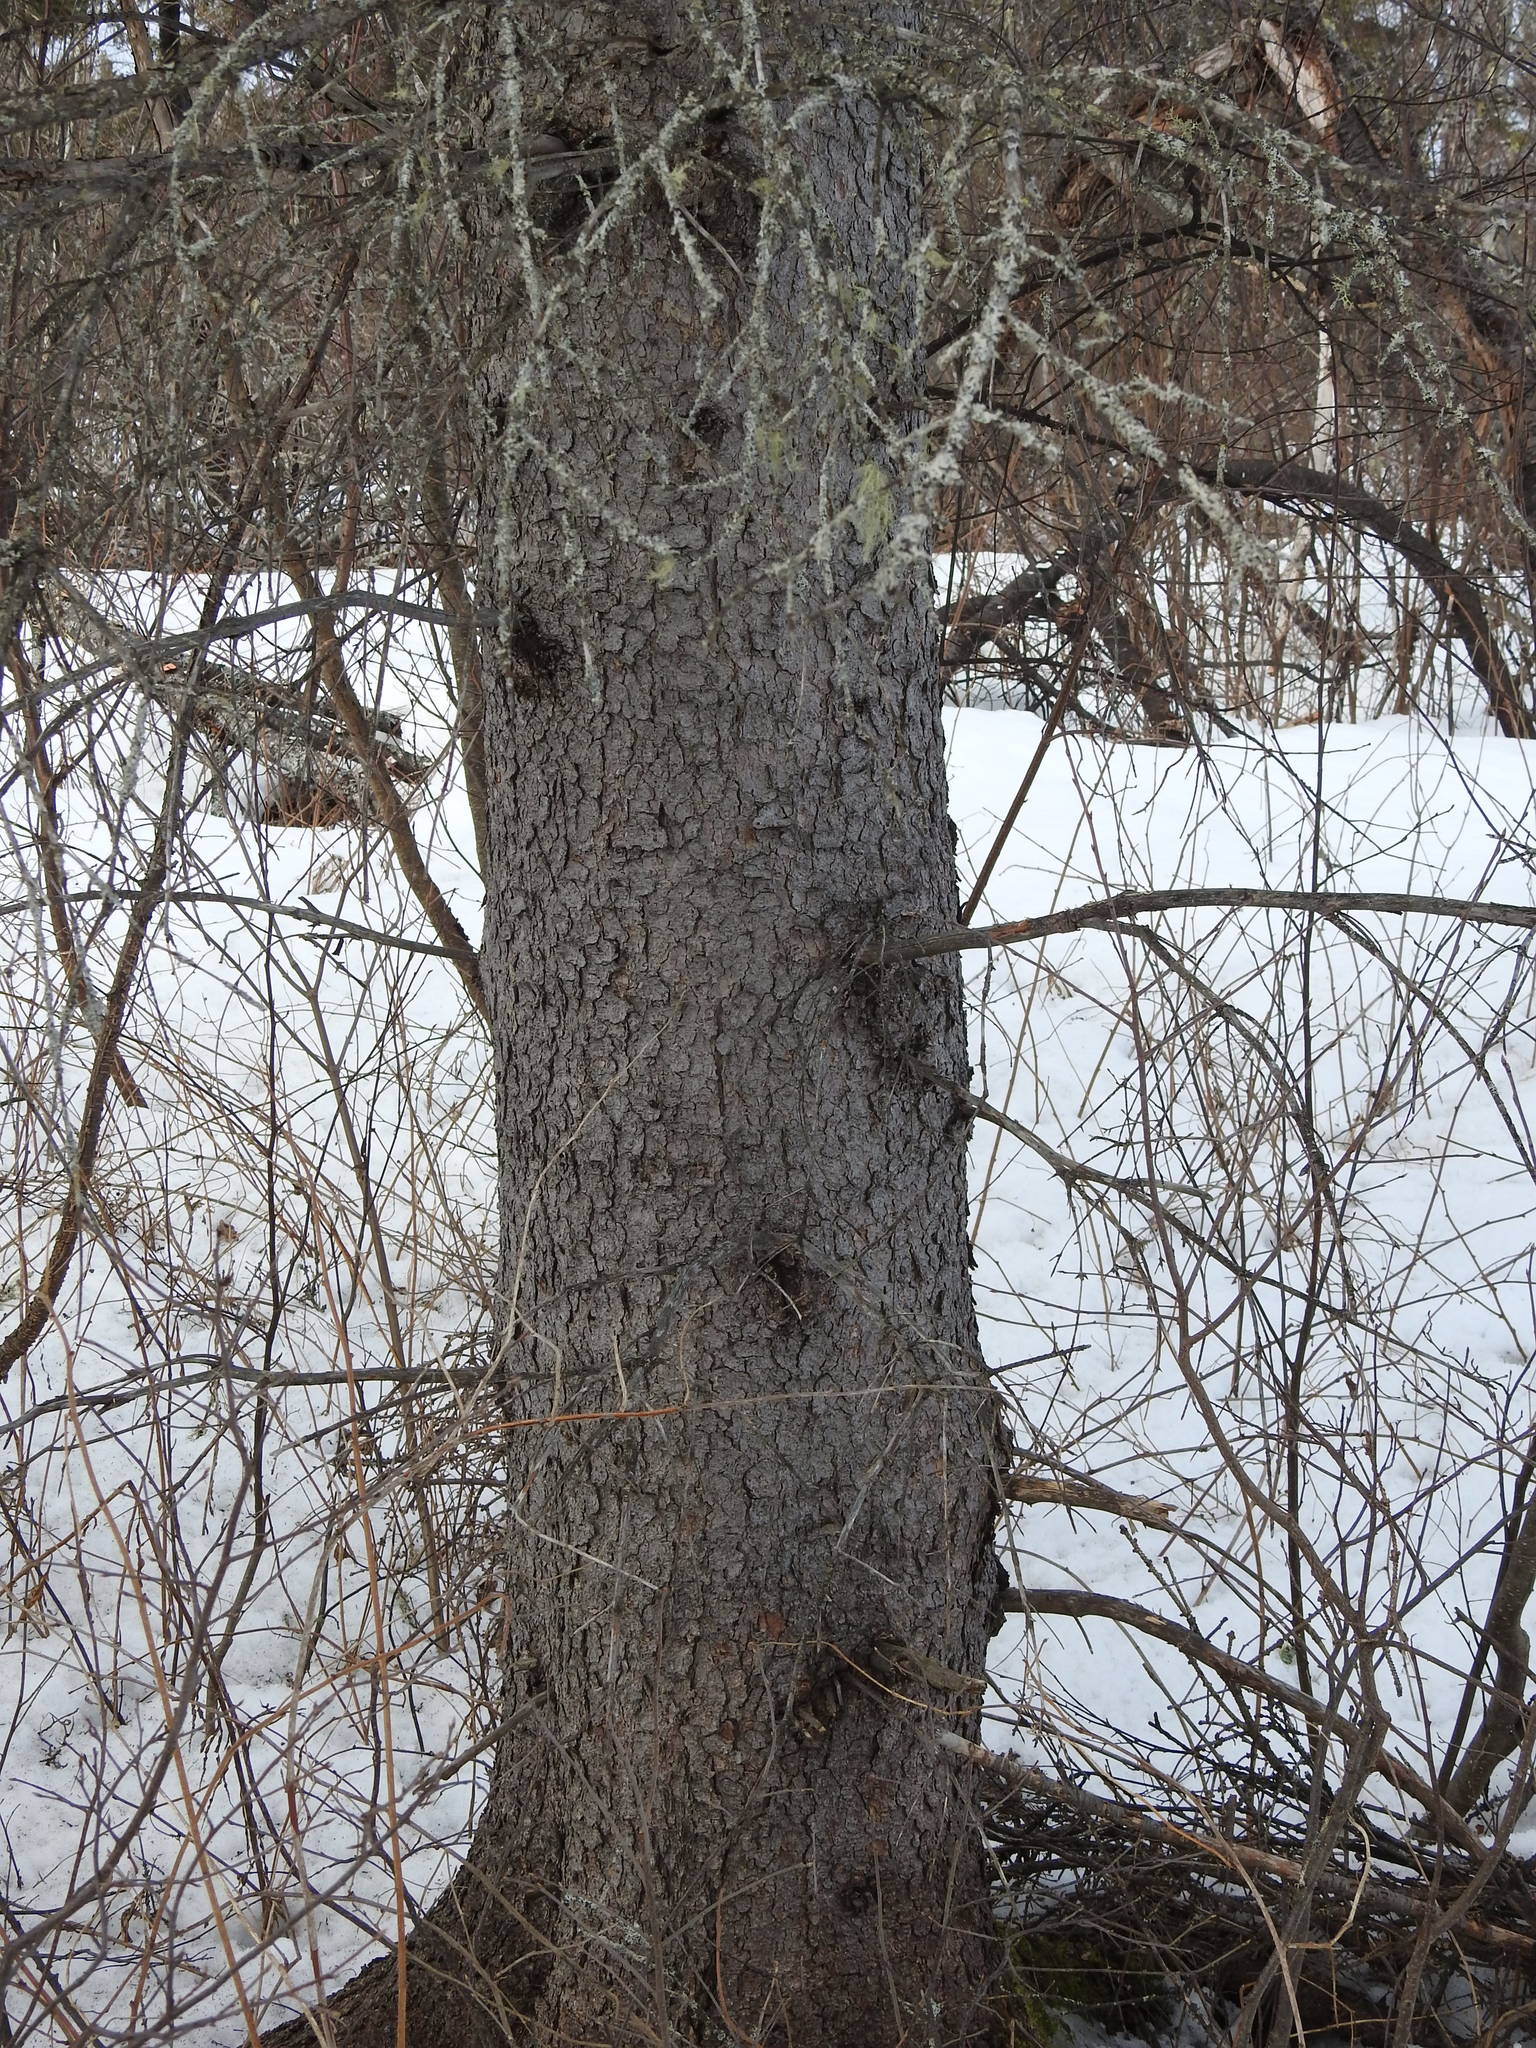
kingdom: Plantae
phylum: Tracheophyta
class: Pinopsida
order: Pinales
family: Pinaceae
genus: Picea
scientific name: Picea glauca
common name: White spruce
